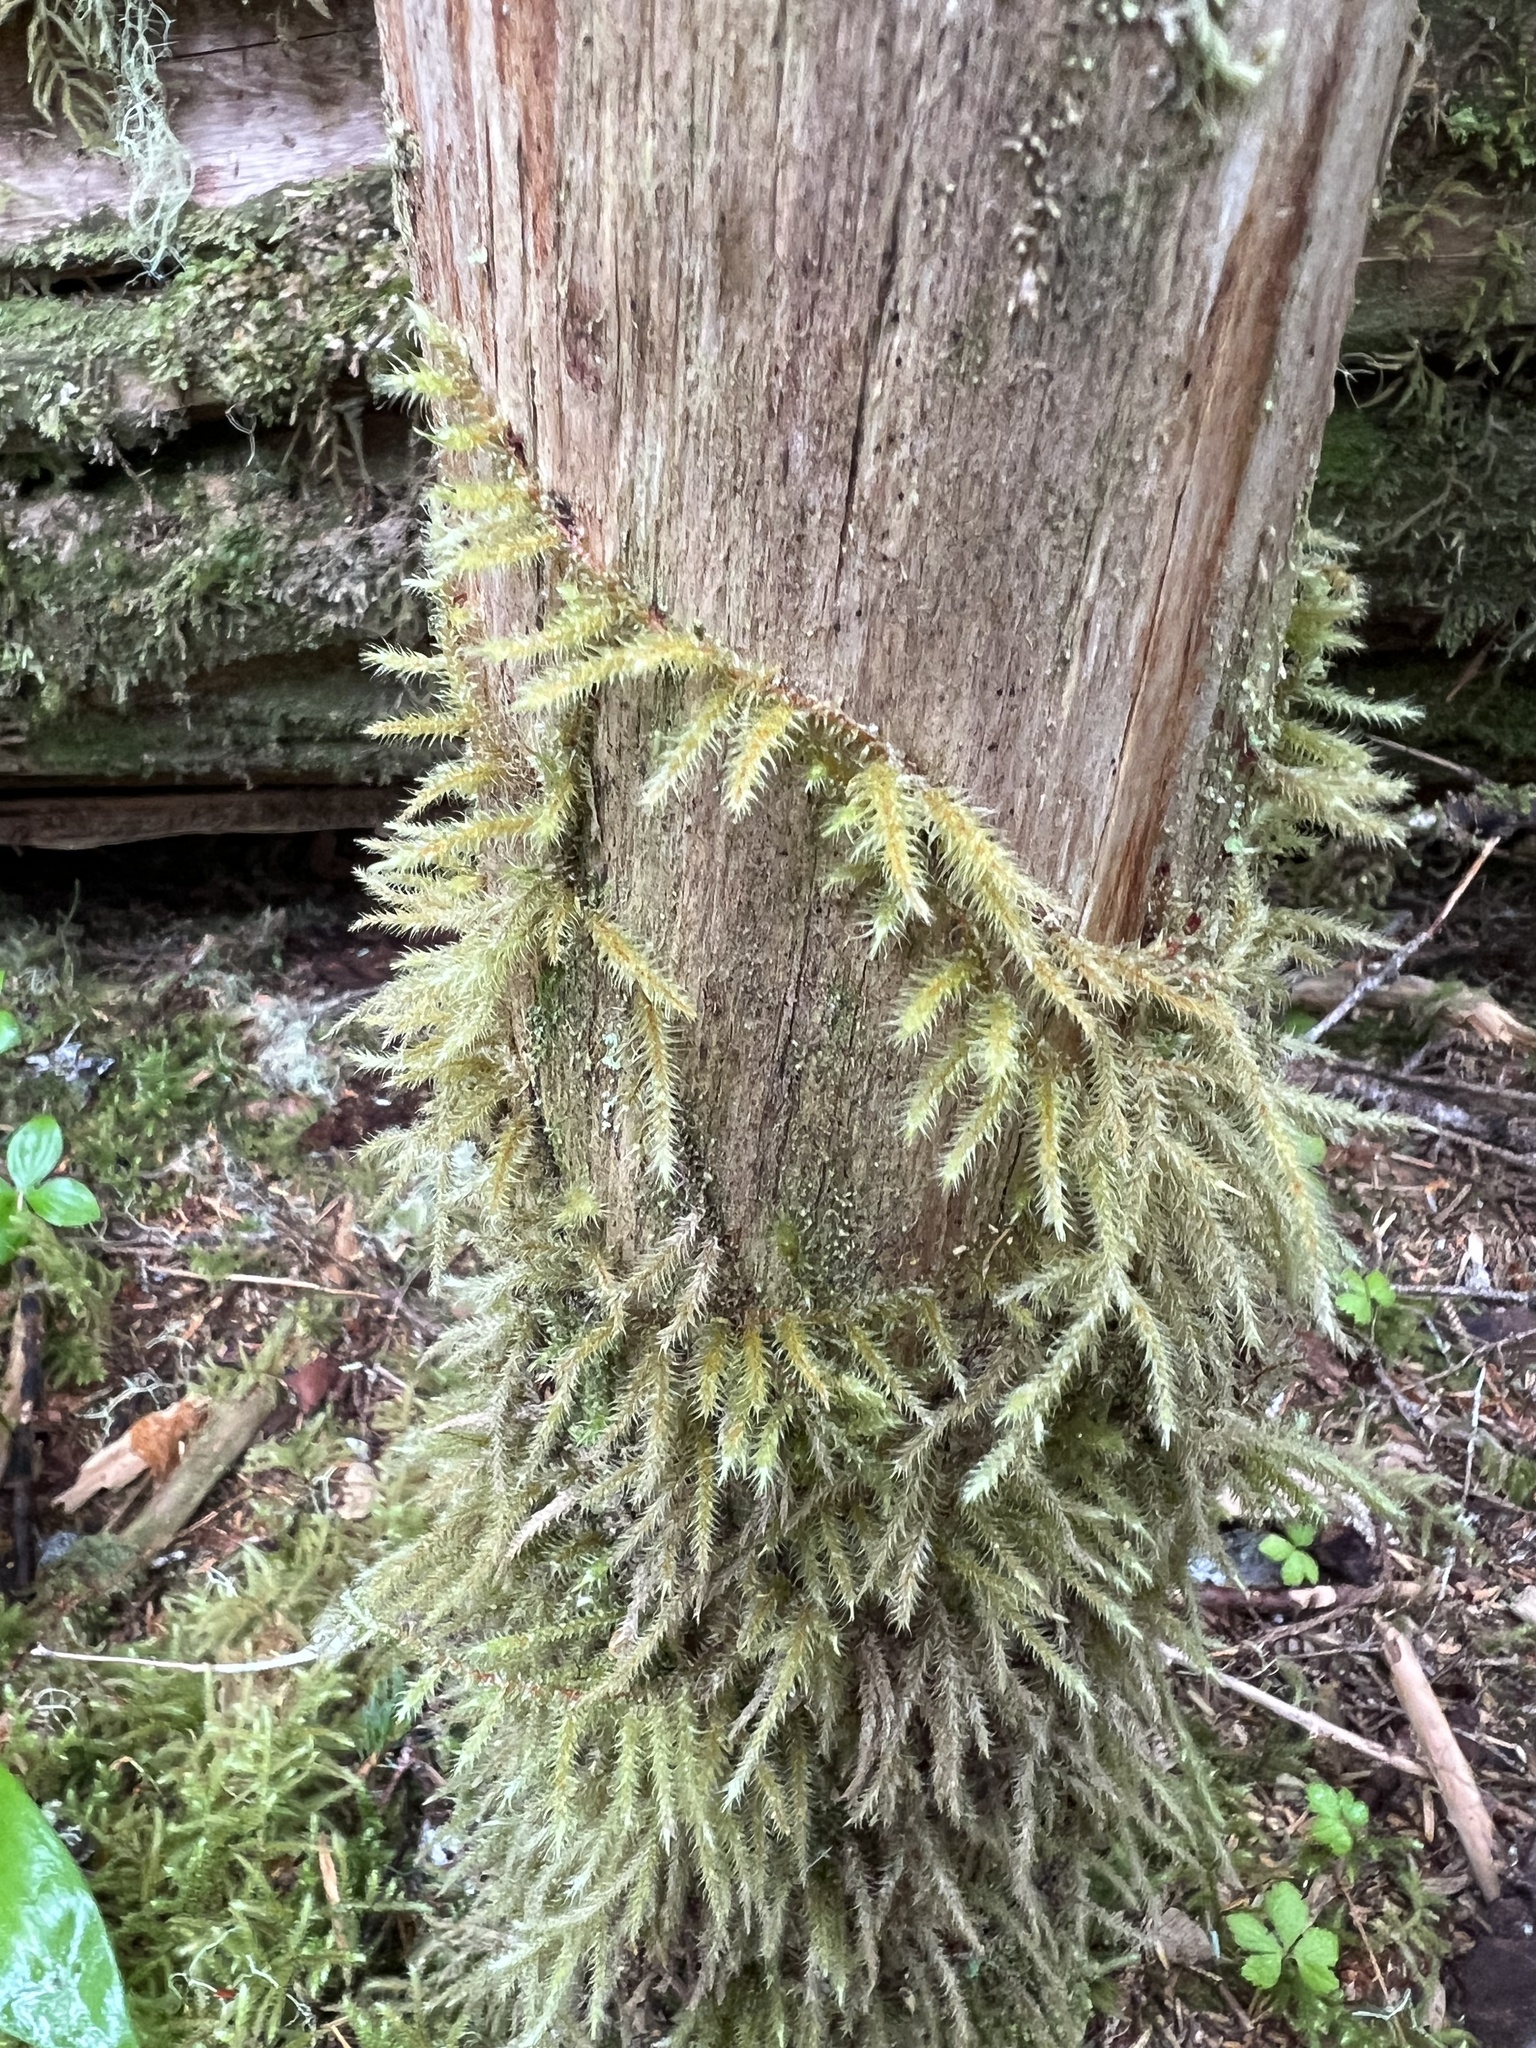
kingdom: Plantae
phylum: Bryophyta
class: Bryopsida
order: Hypnales
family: Hylocomiaceae
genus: Rhytidiadelphus
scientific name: Rhytidiadelphus loreus
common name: Lanky moss
